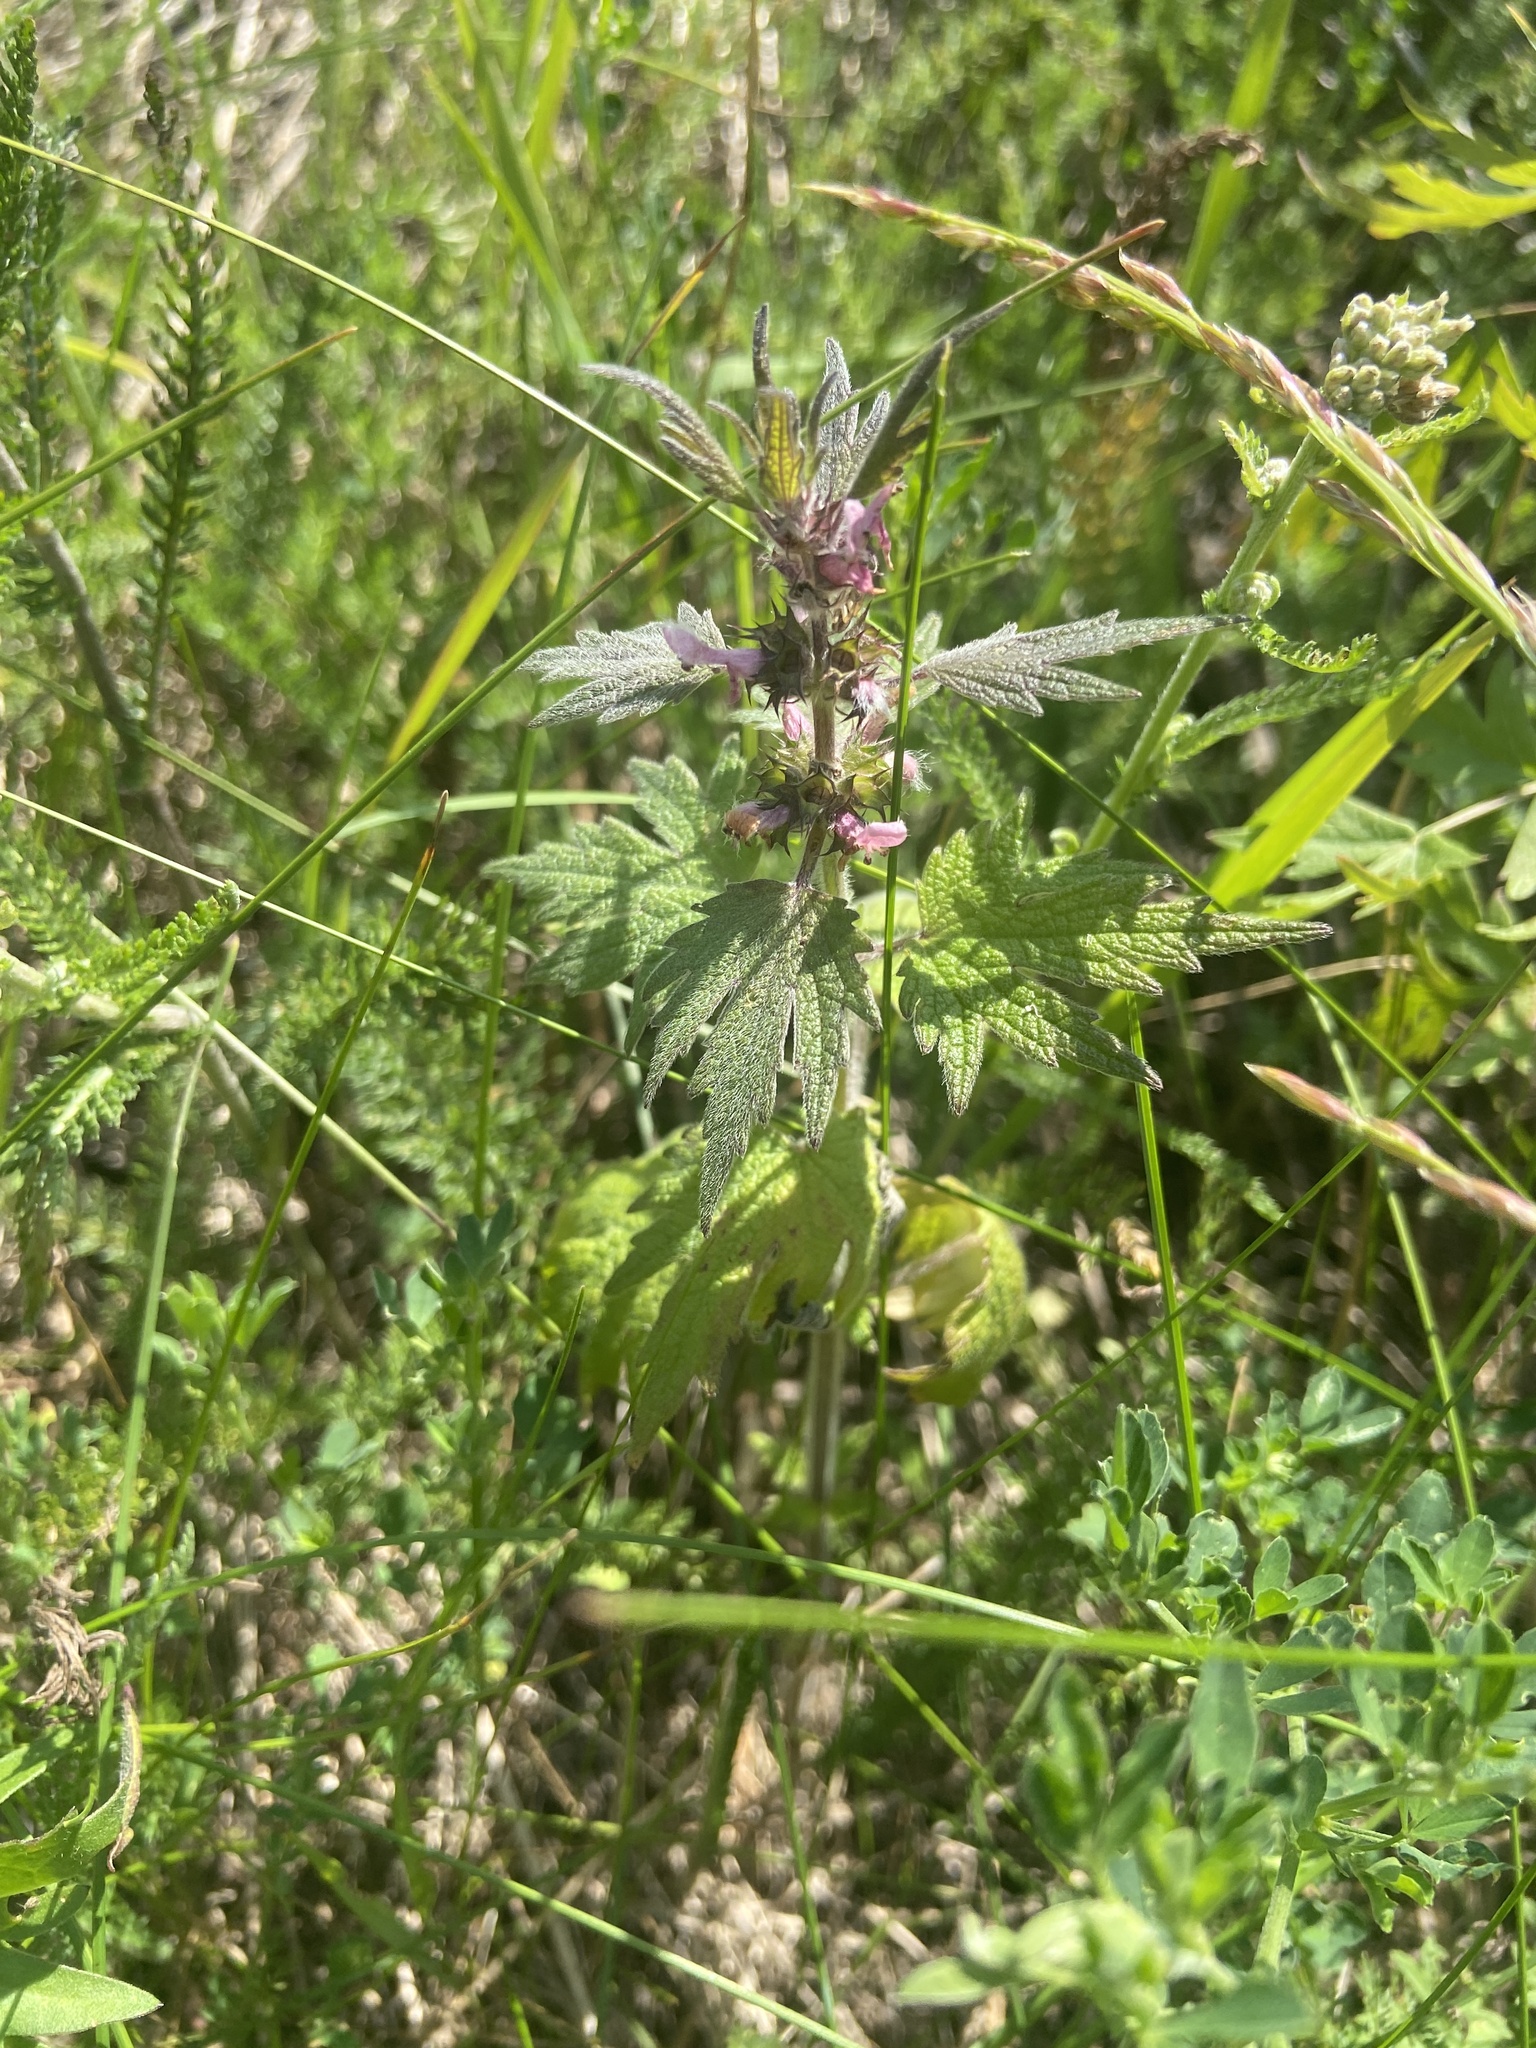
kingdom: Plantae
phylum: Tracheophyta
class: Magnoliopsida
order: Lamiales
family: Lamiaceae
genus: Leonurus
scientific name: Leonurus quinquelobatus
